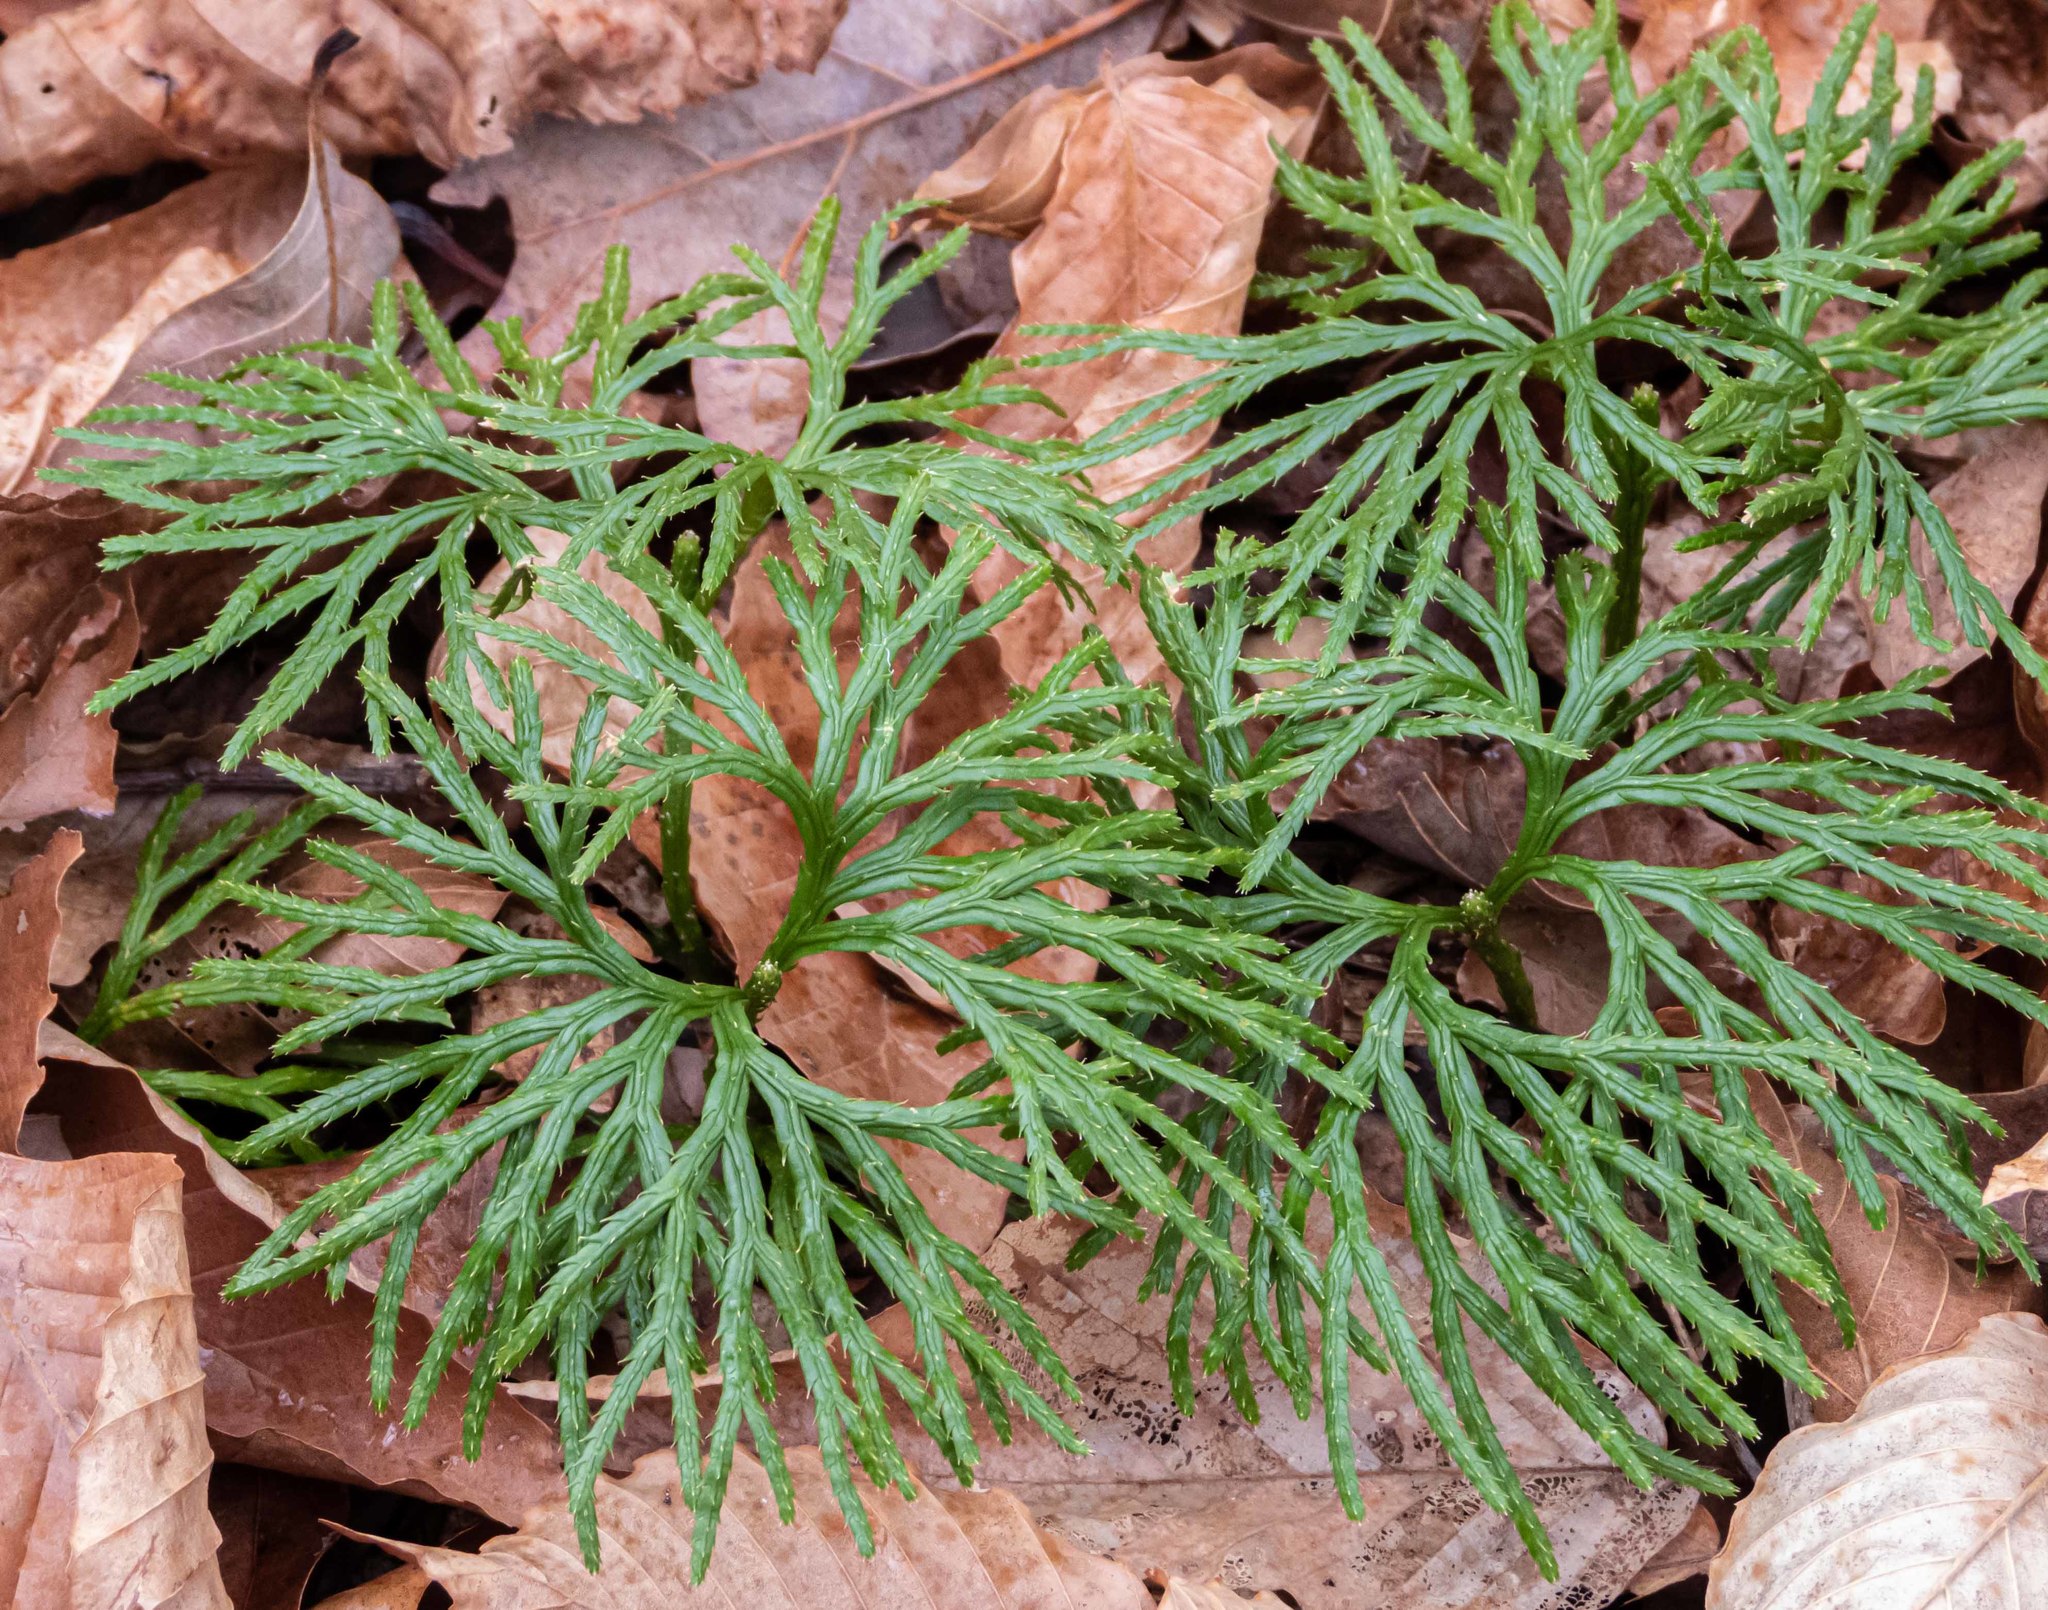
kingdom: Plantae
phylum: Tracheophyta
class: Lycopodiopsida
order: Lycopodiales
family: Lycopodiaceae
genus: Diphasiastrum
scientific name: Diphasiastrum digitatum
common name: Southern running-pine
